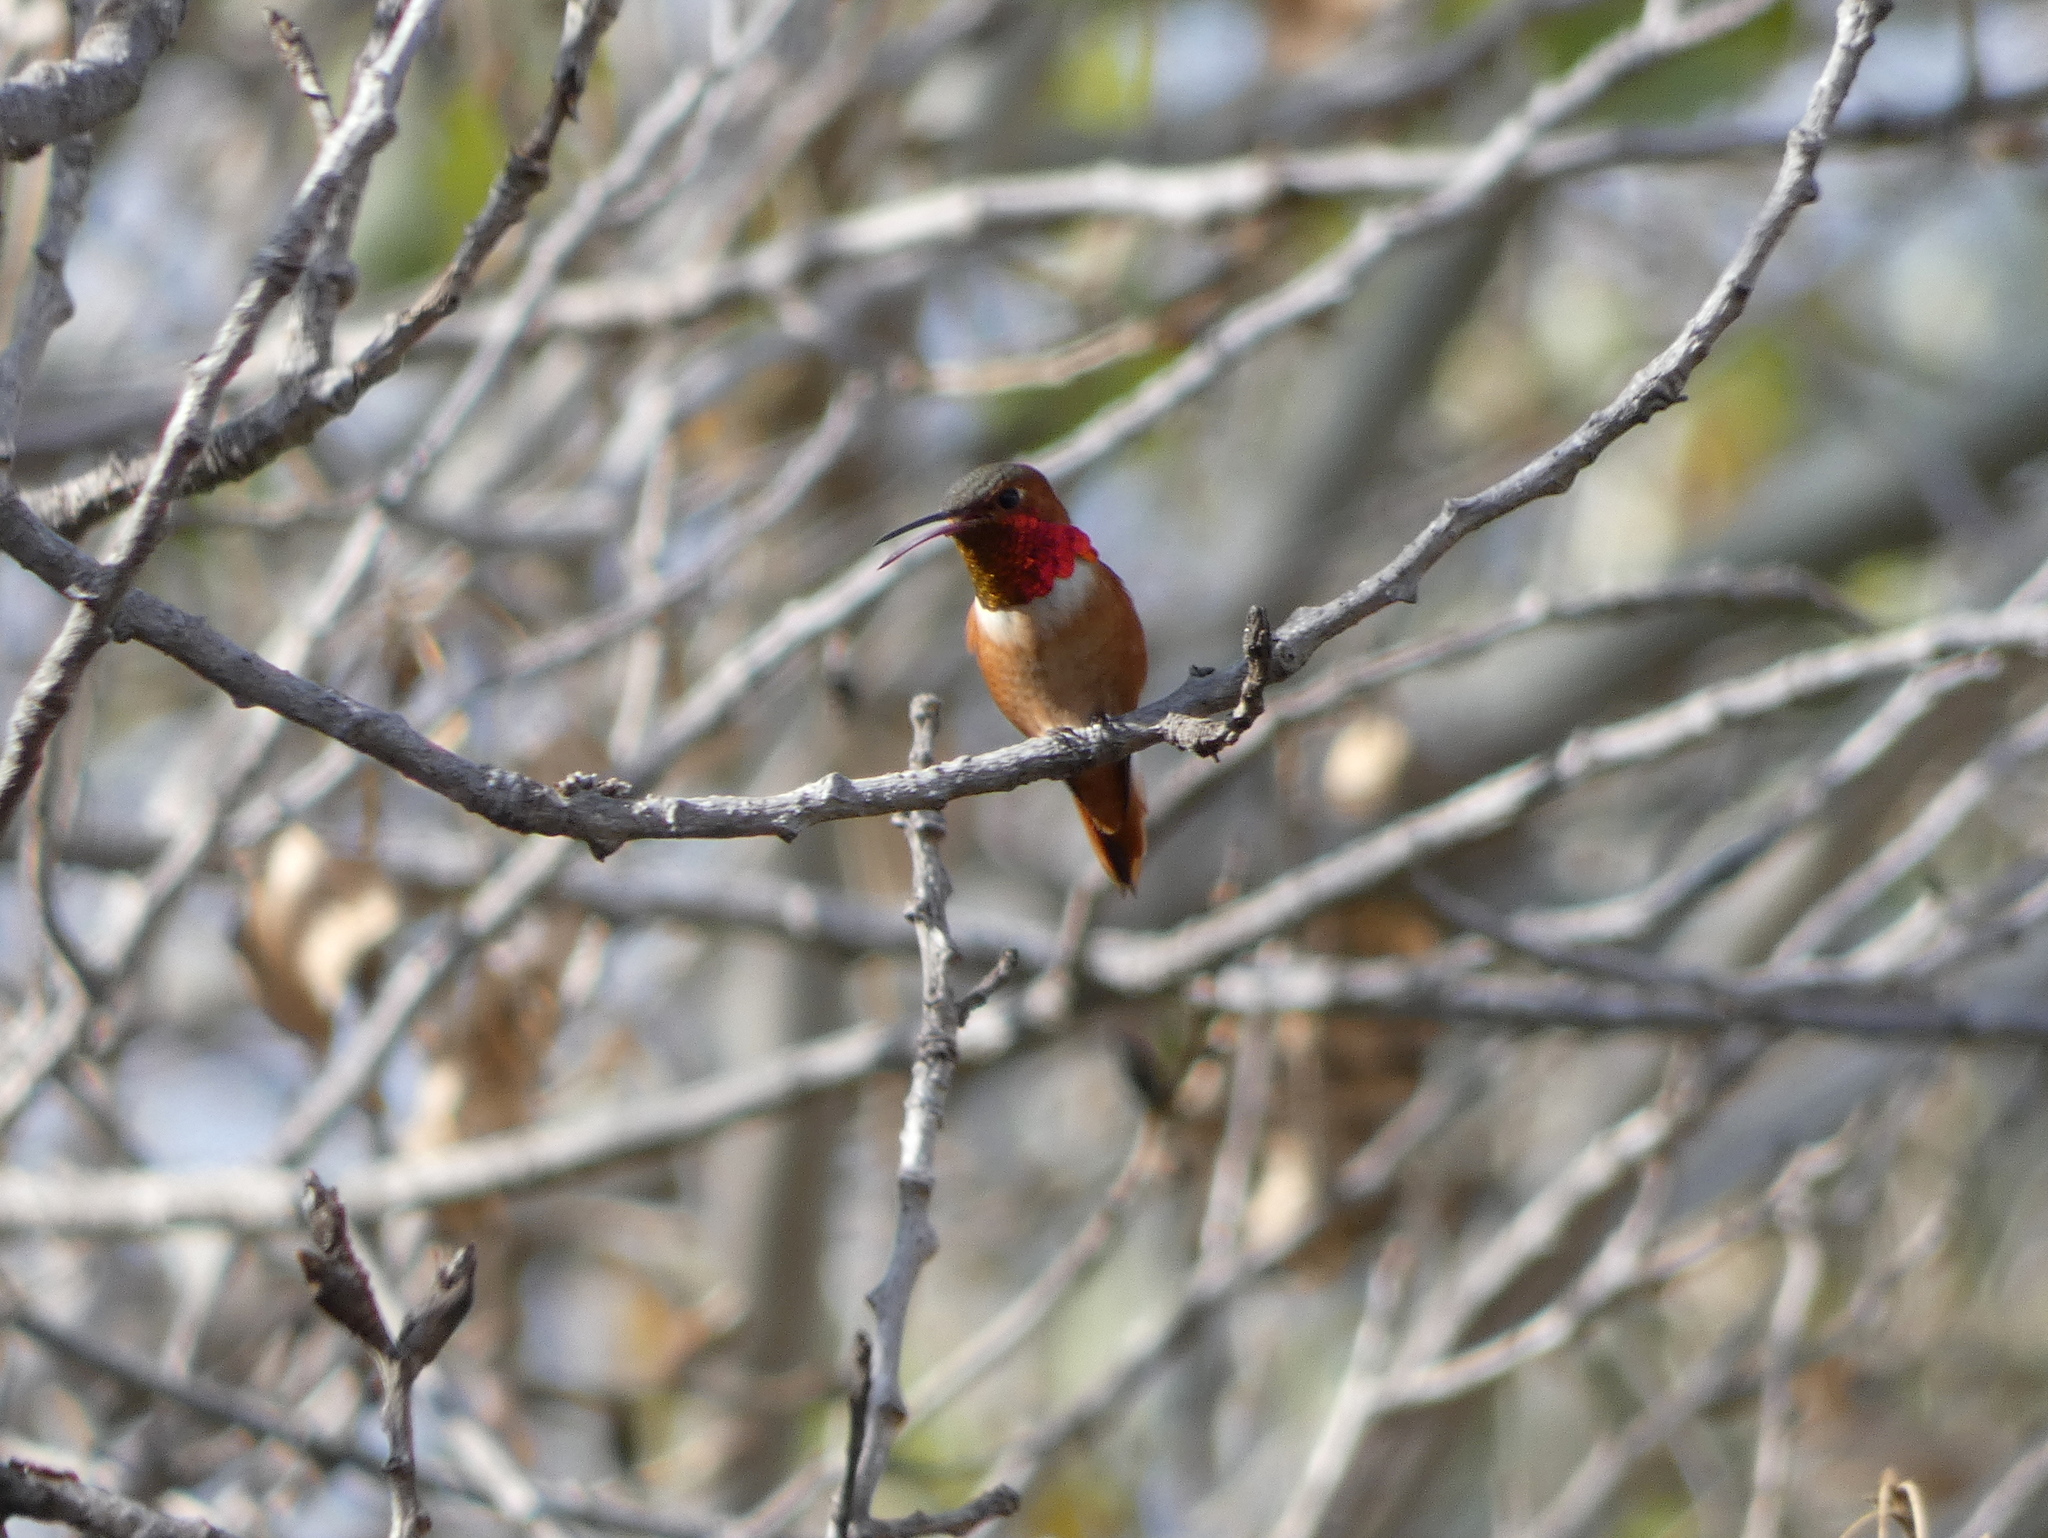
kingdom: Animalia
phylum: Chordata
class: Aves
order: Apodiformes
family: Trochilidae
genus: Selasphorus
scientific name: Selasphorus sasin
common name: Allen's hummingbird
